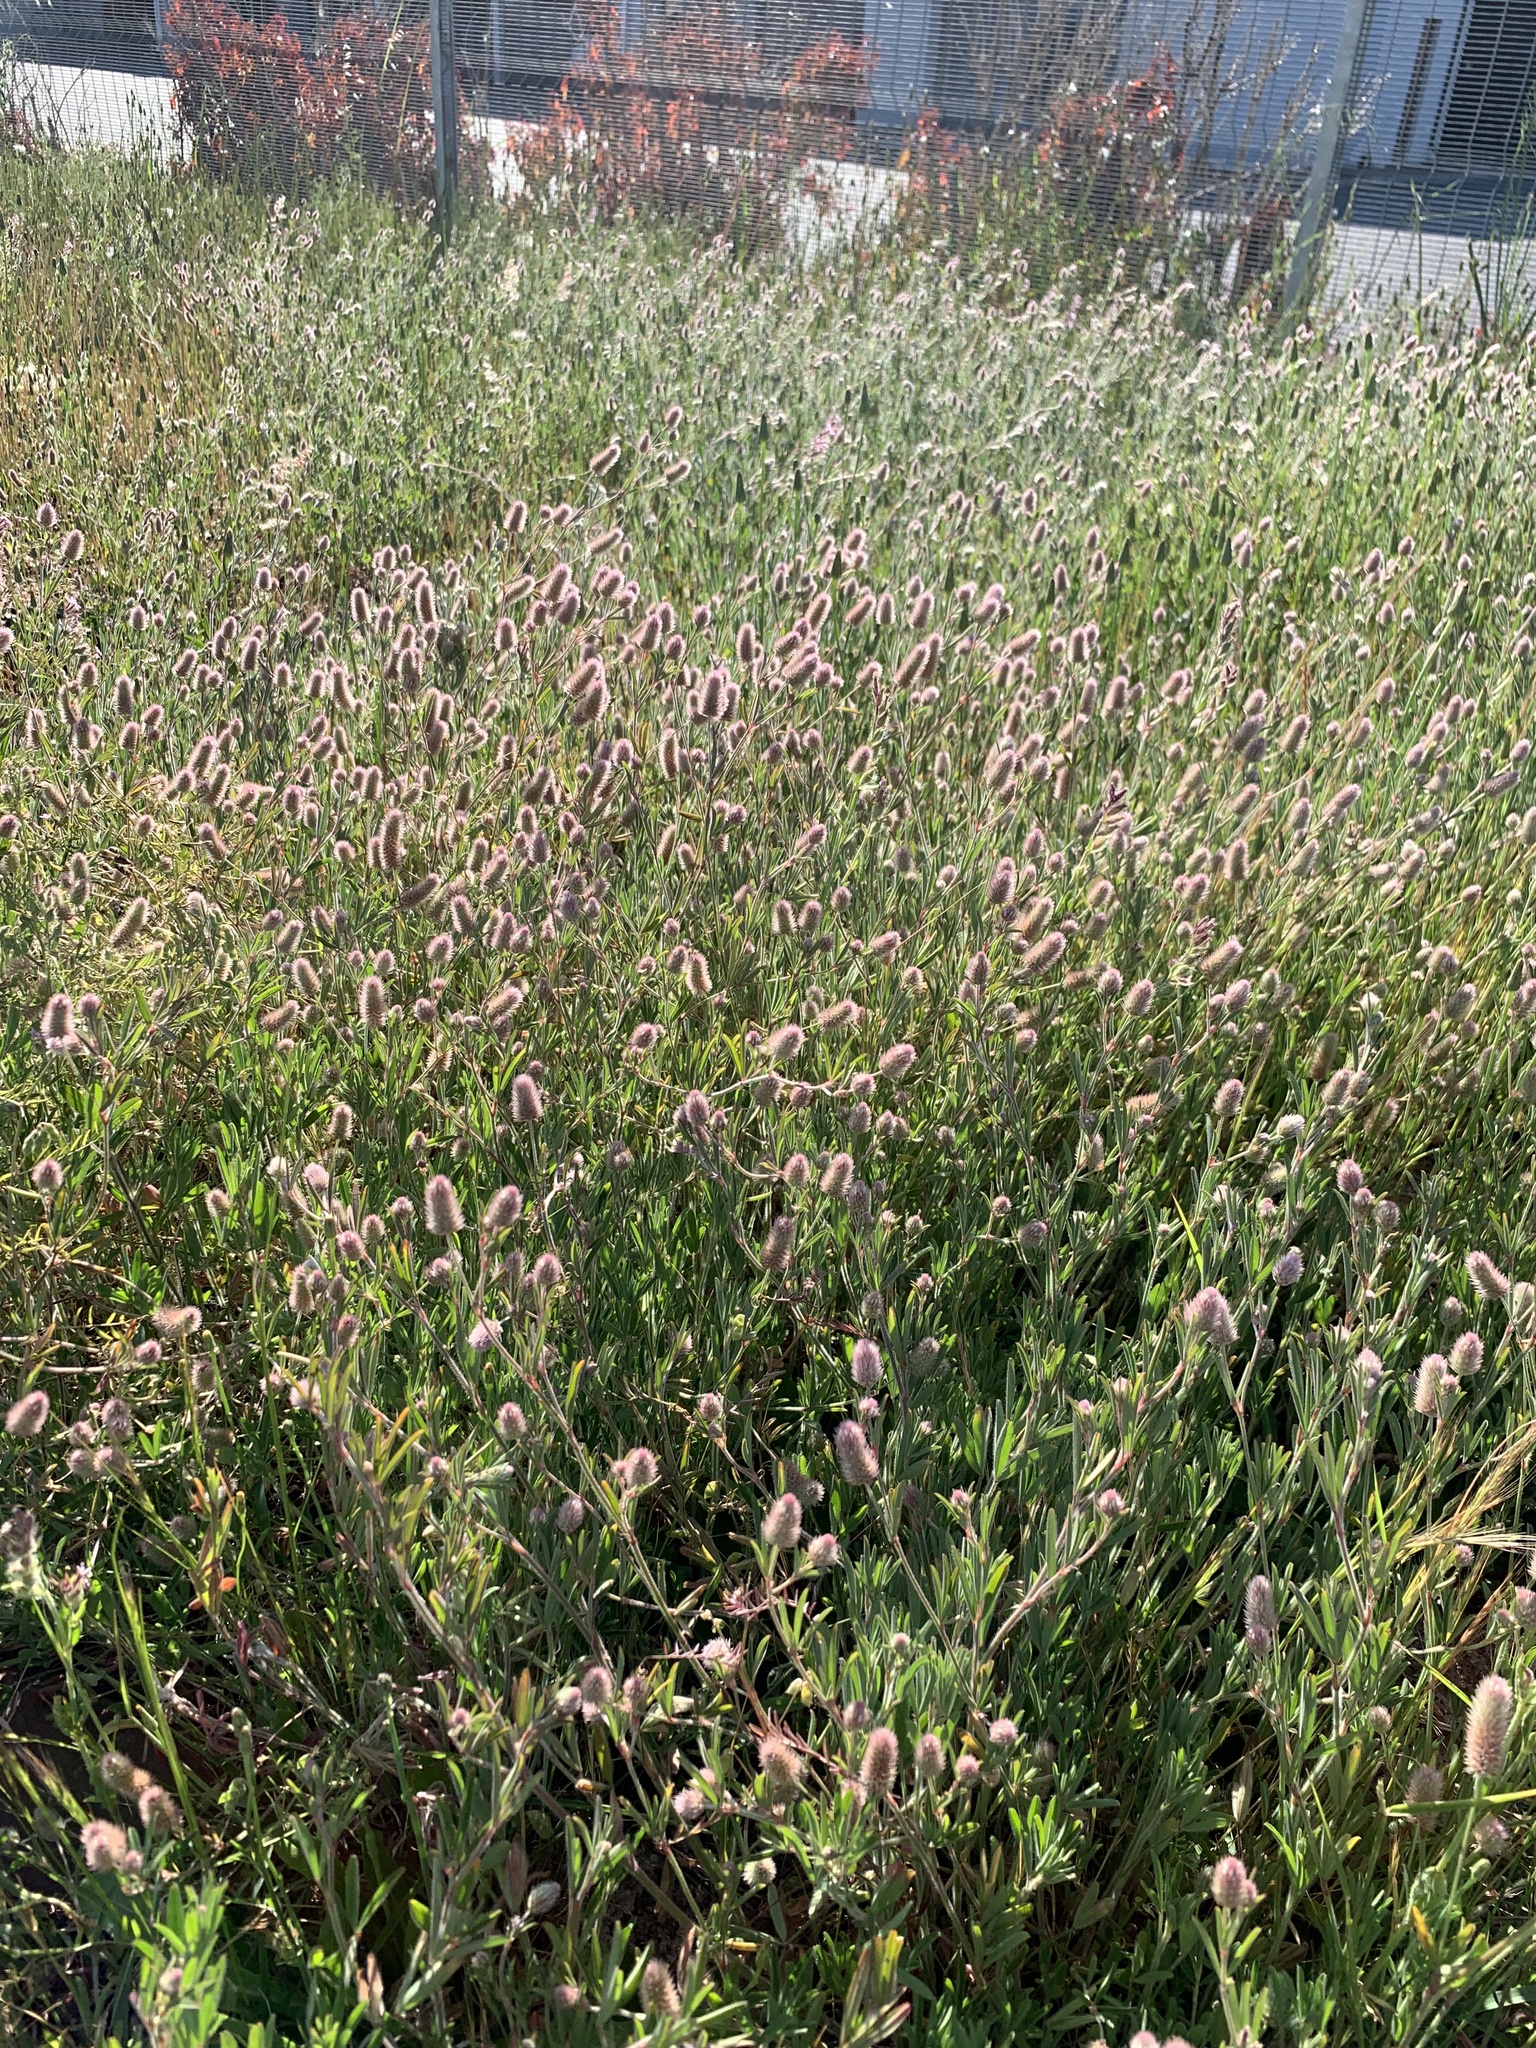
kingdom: Plantae
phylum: Tracheophyta
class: Magnoliopsida
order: Fabales
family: Fabaceae
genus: Trifolium
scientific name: Trifolium arvense
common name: Hare's-foot clover
